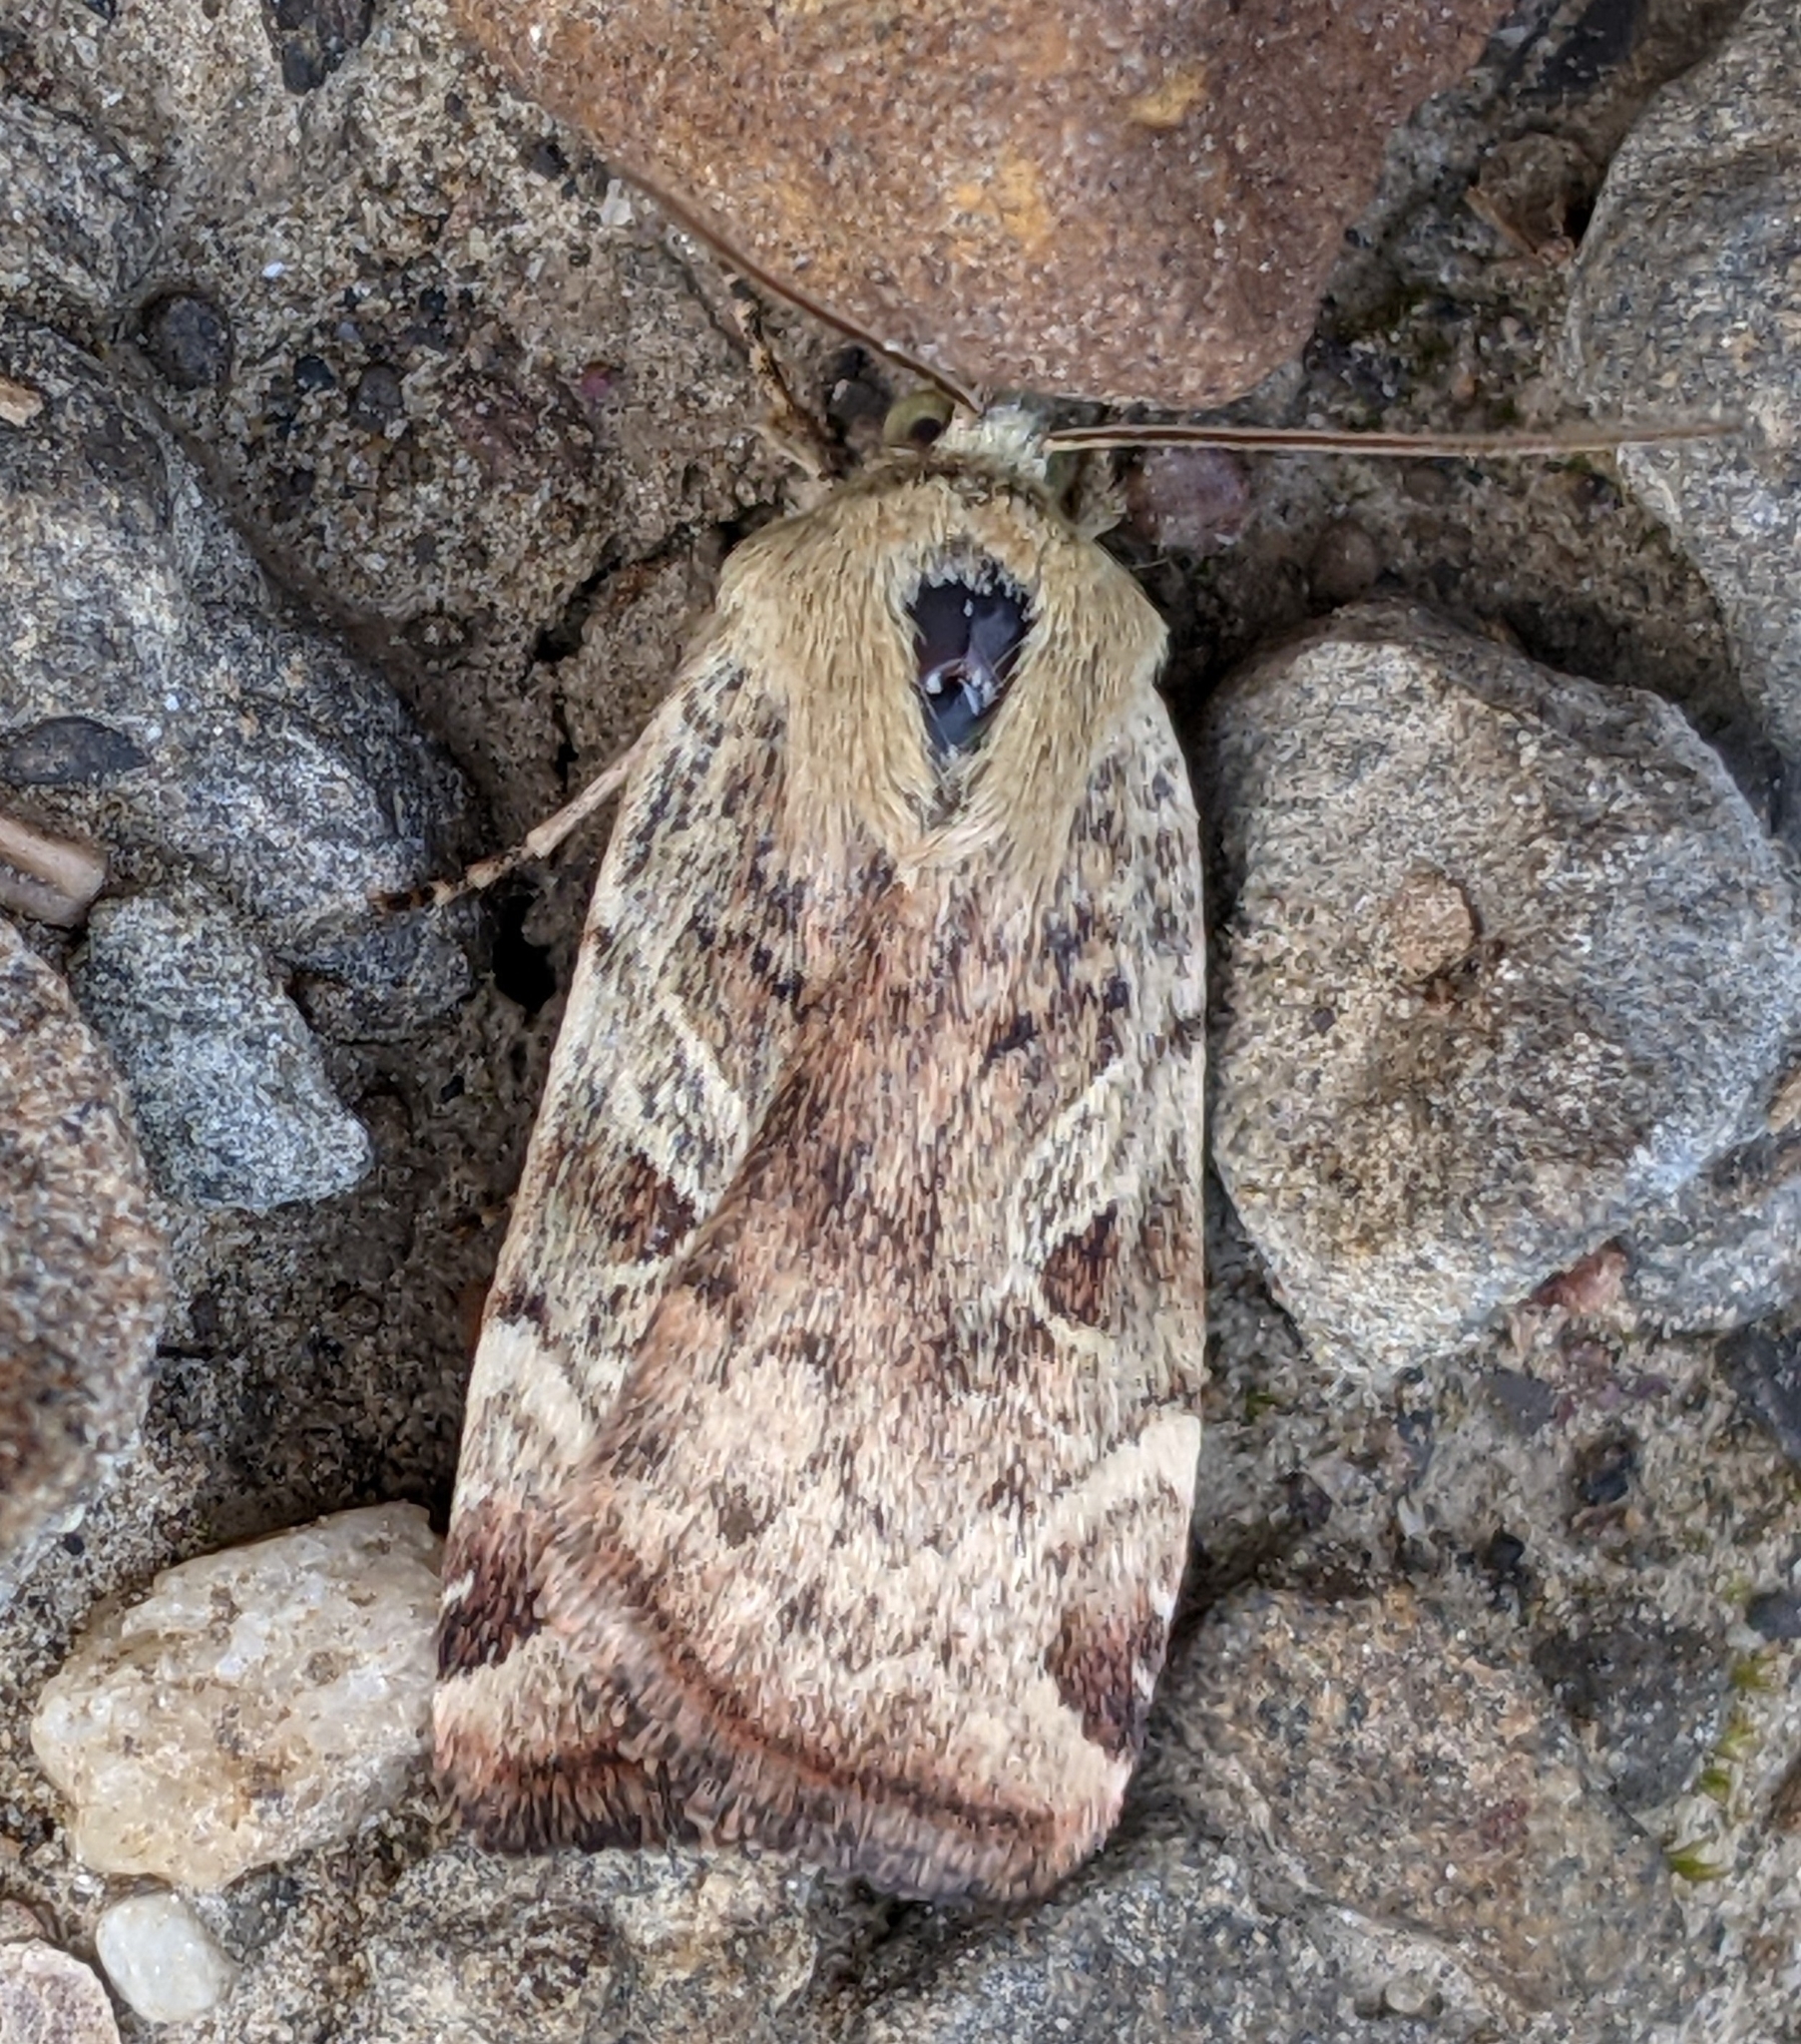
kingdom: Animalia
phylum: Arthropoda
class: Insecta
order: Lepidoptera
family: Noctuidae
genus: Cryptocala
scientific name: Cryptocala acadiensis
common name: Catocaline dart
